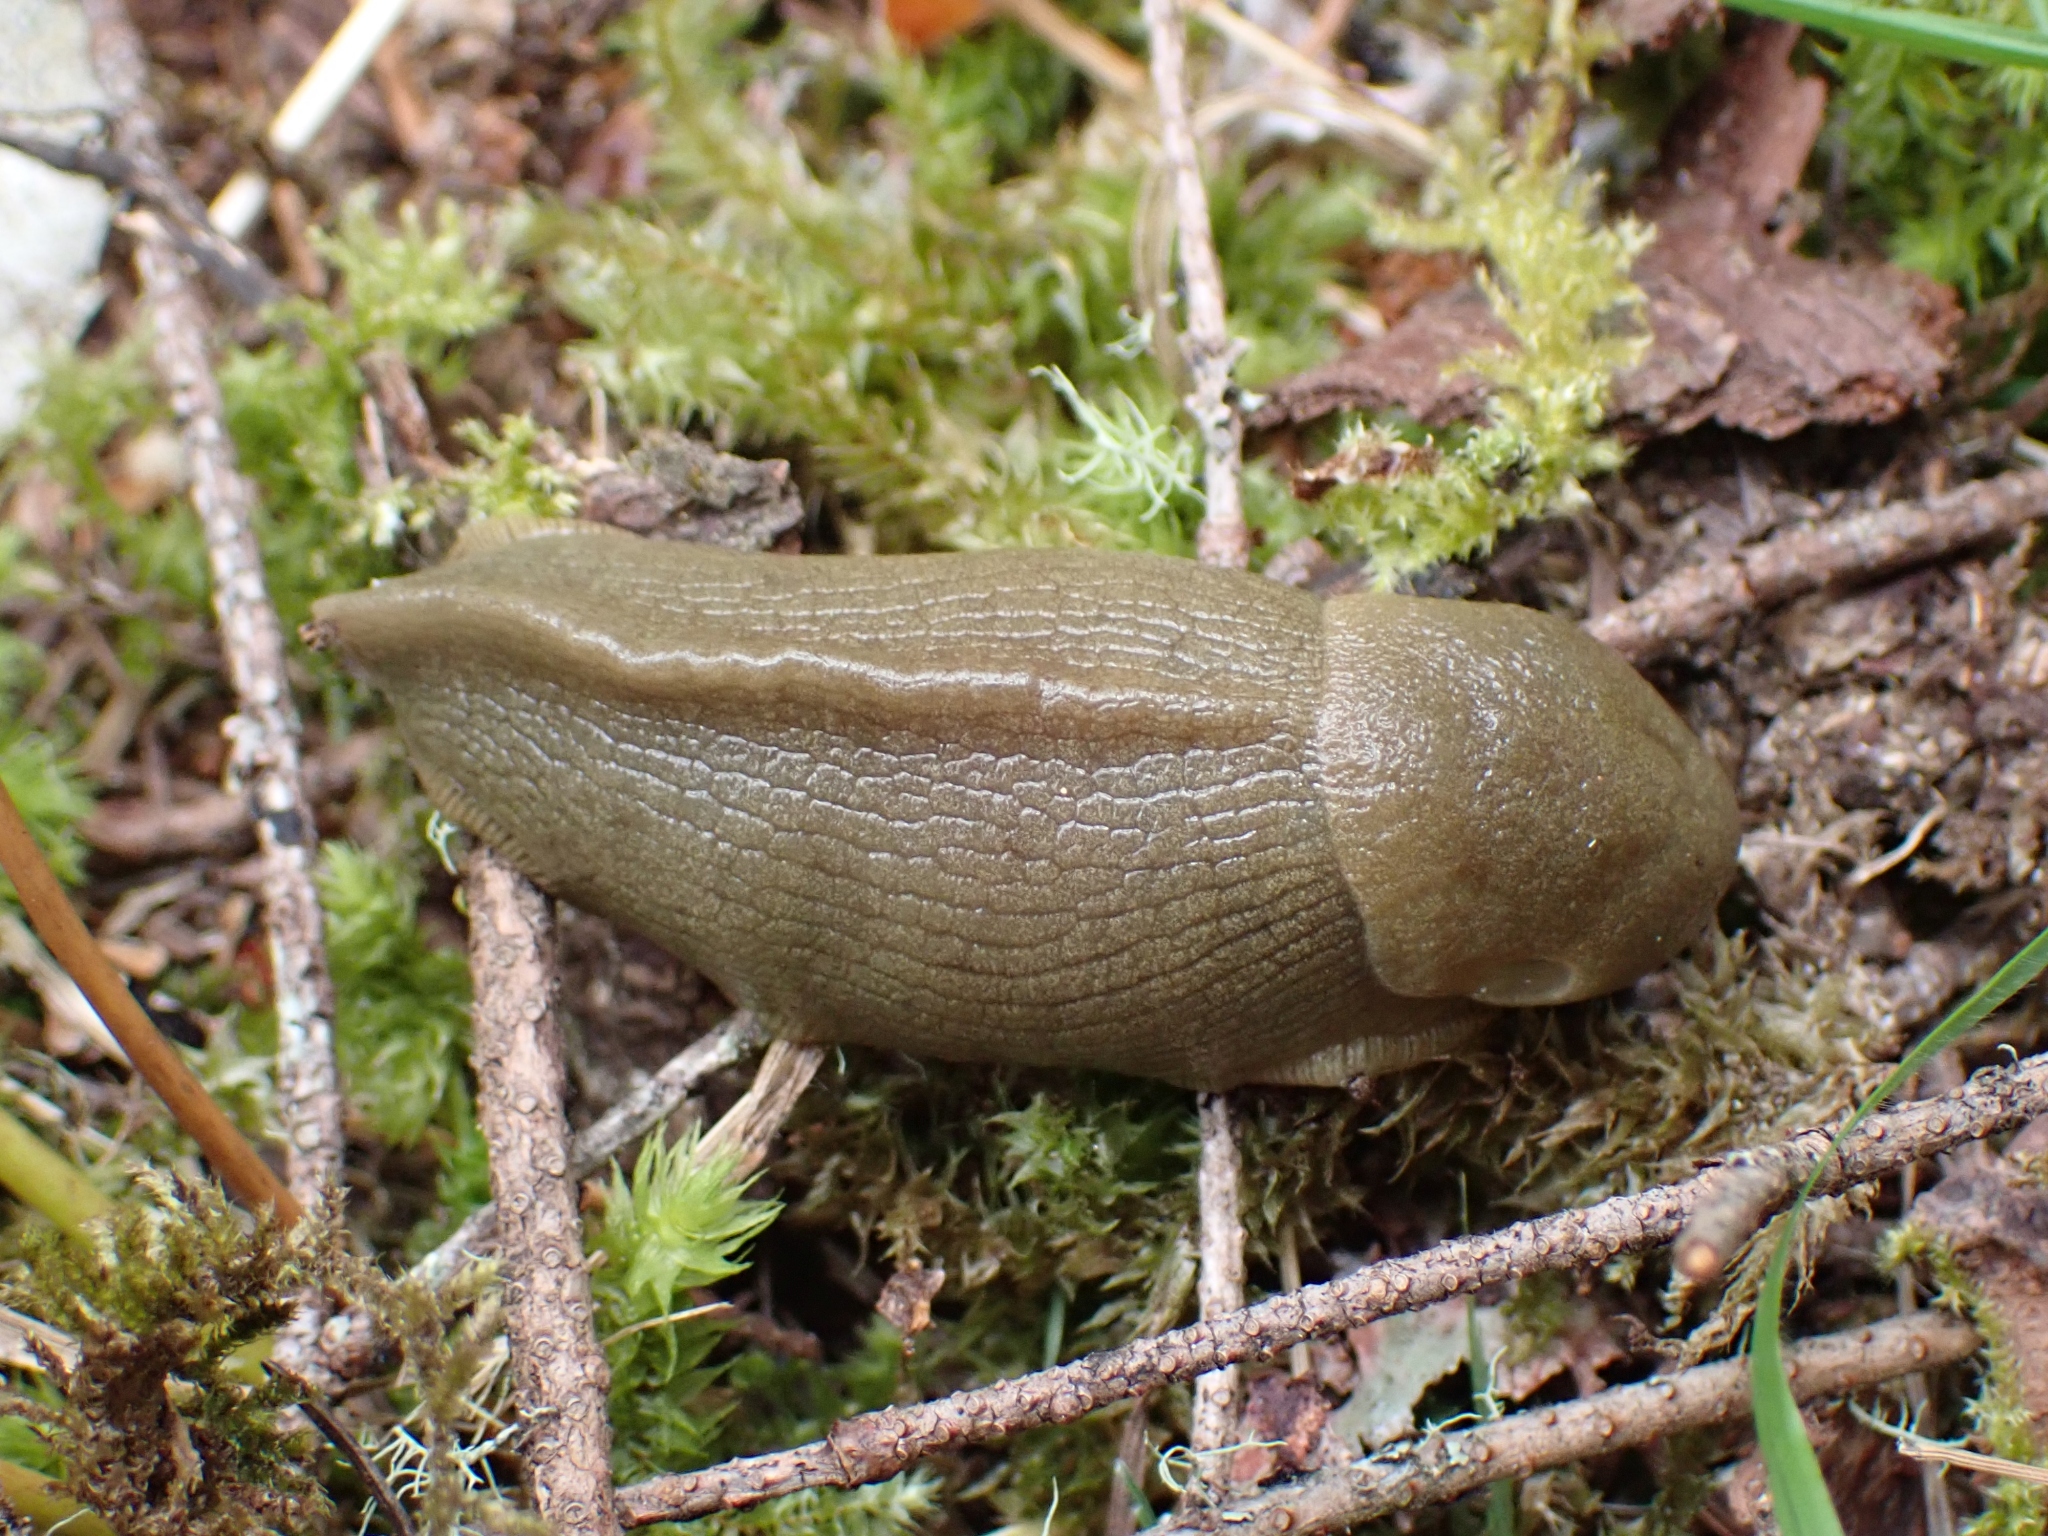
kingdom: Animalia
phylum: Mollusca
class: Gastropoda
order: Stylommatophora
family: Ariolimacidae
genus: Ariolimax
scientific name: Ariolimax columbianus
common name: Pacific banana slug
